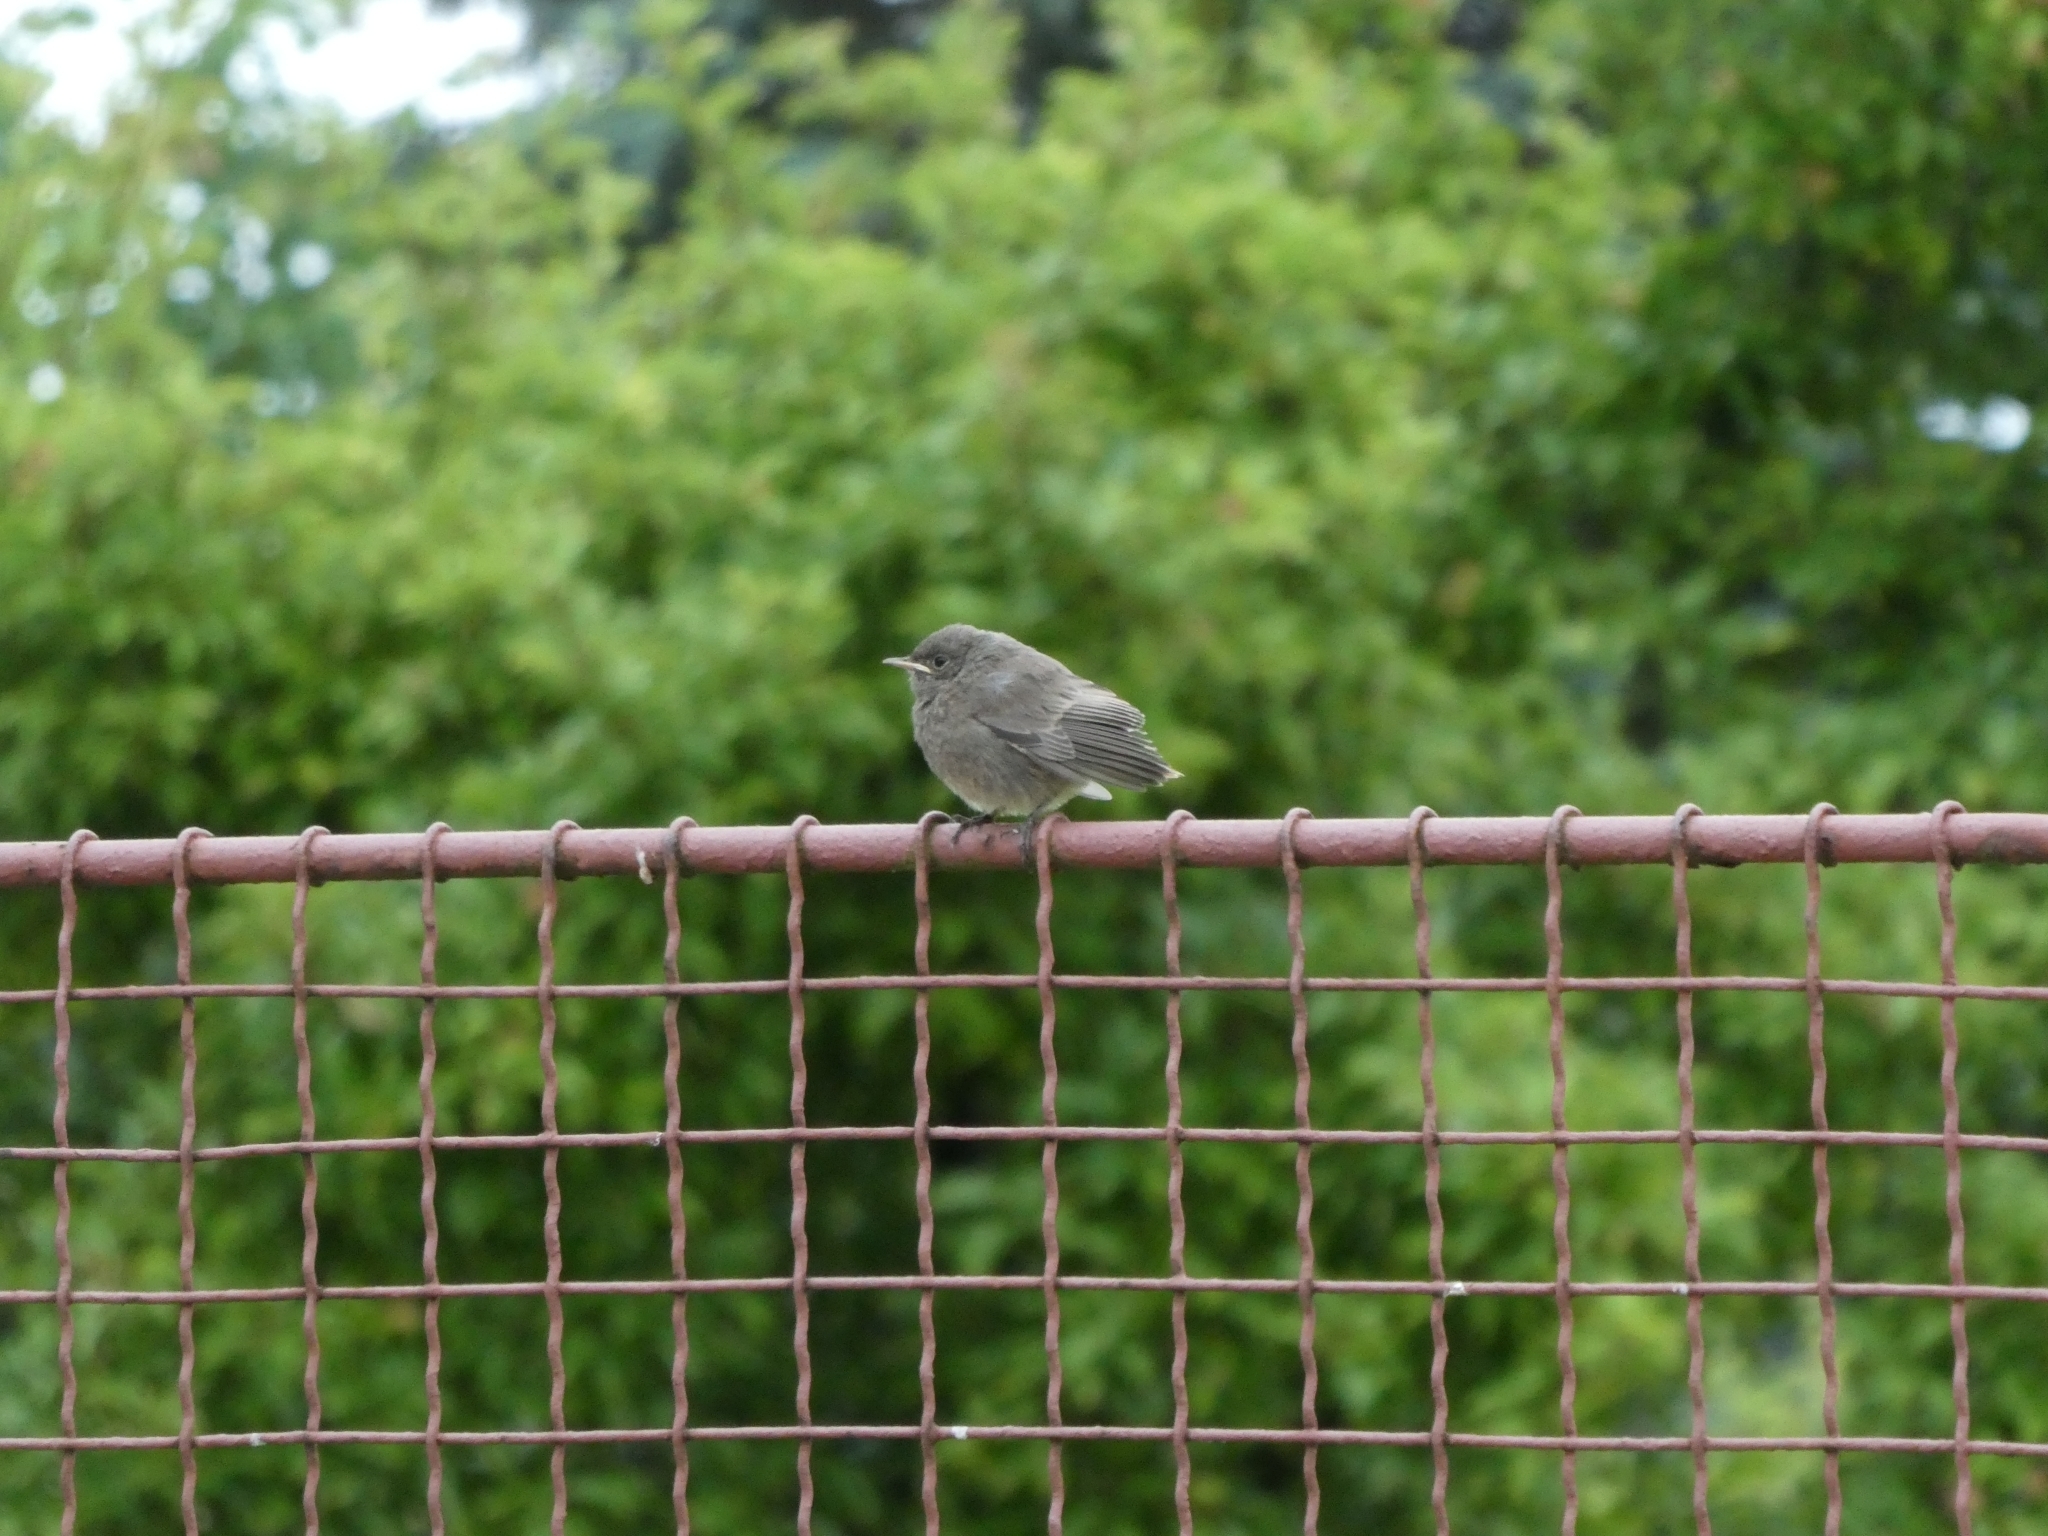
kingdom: Animalia
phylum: Chordata
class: Aves
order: Passeriformes
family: Muscicapidae
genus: Phoenicurus
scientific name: Phoenicurus ochruros
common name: Black redstart
